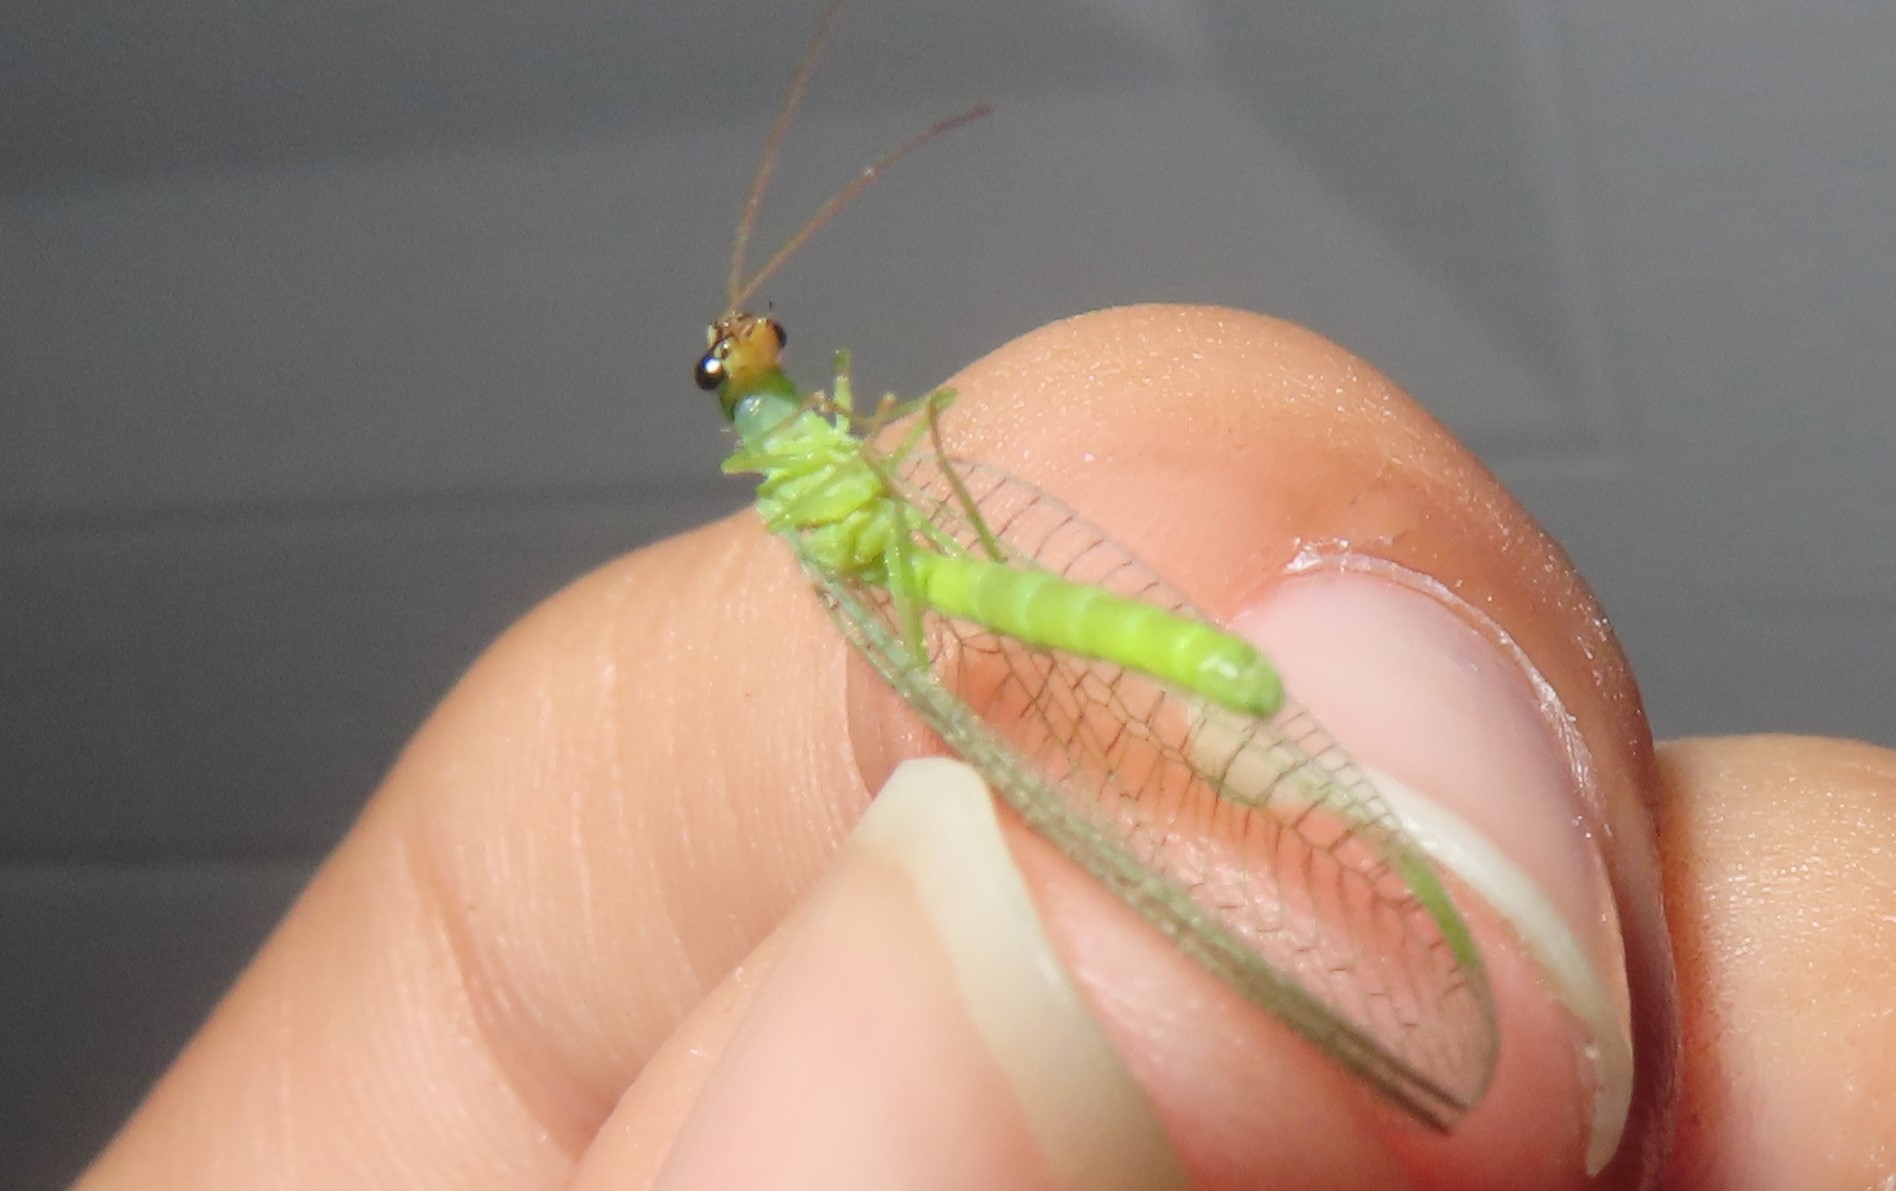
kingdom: Animalia
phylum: Arthropoda
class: Insecta
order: Neuroptera
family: Chrysopidae
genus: Chrysopa
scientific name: Chrysopa oculata
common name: Golden-eyed lacewing
